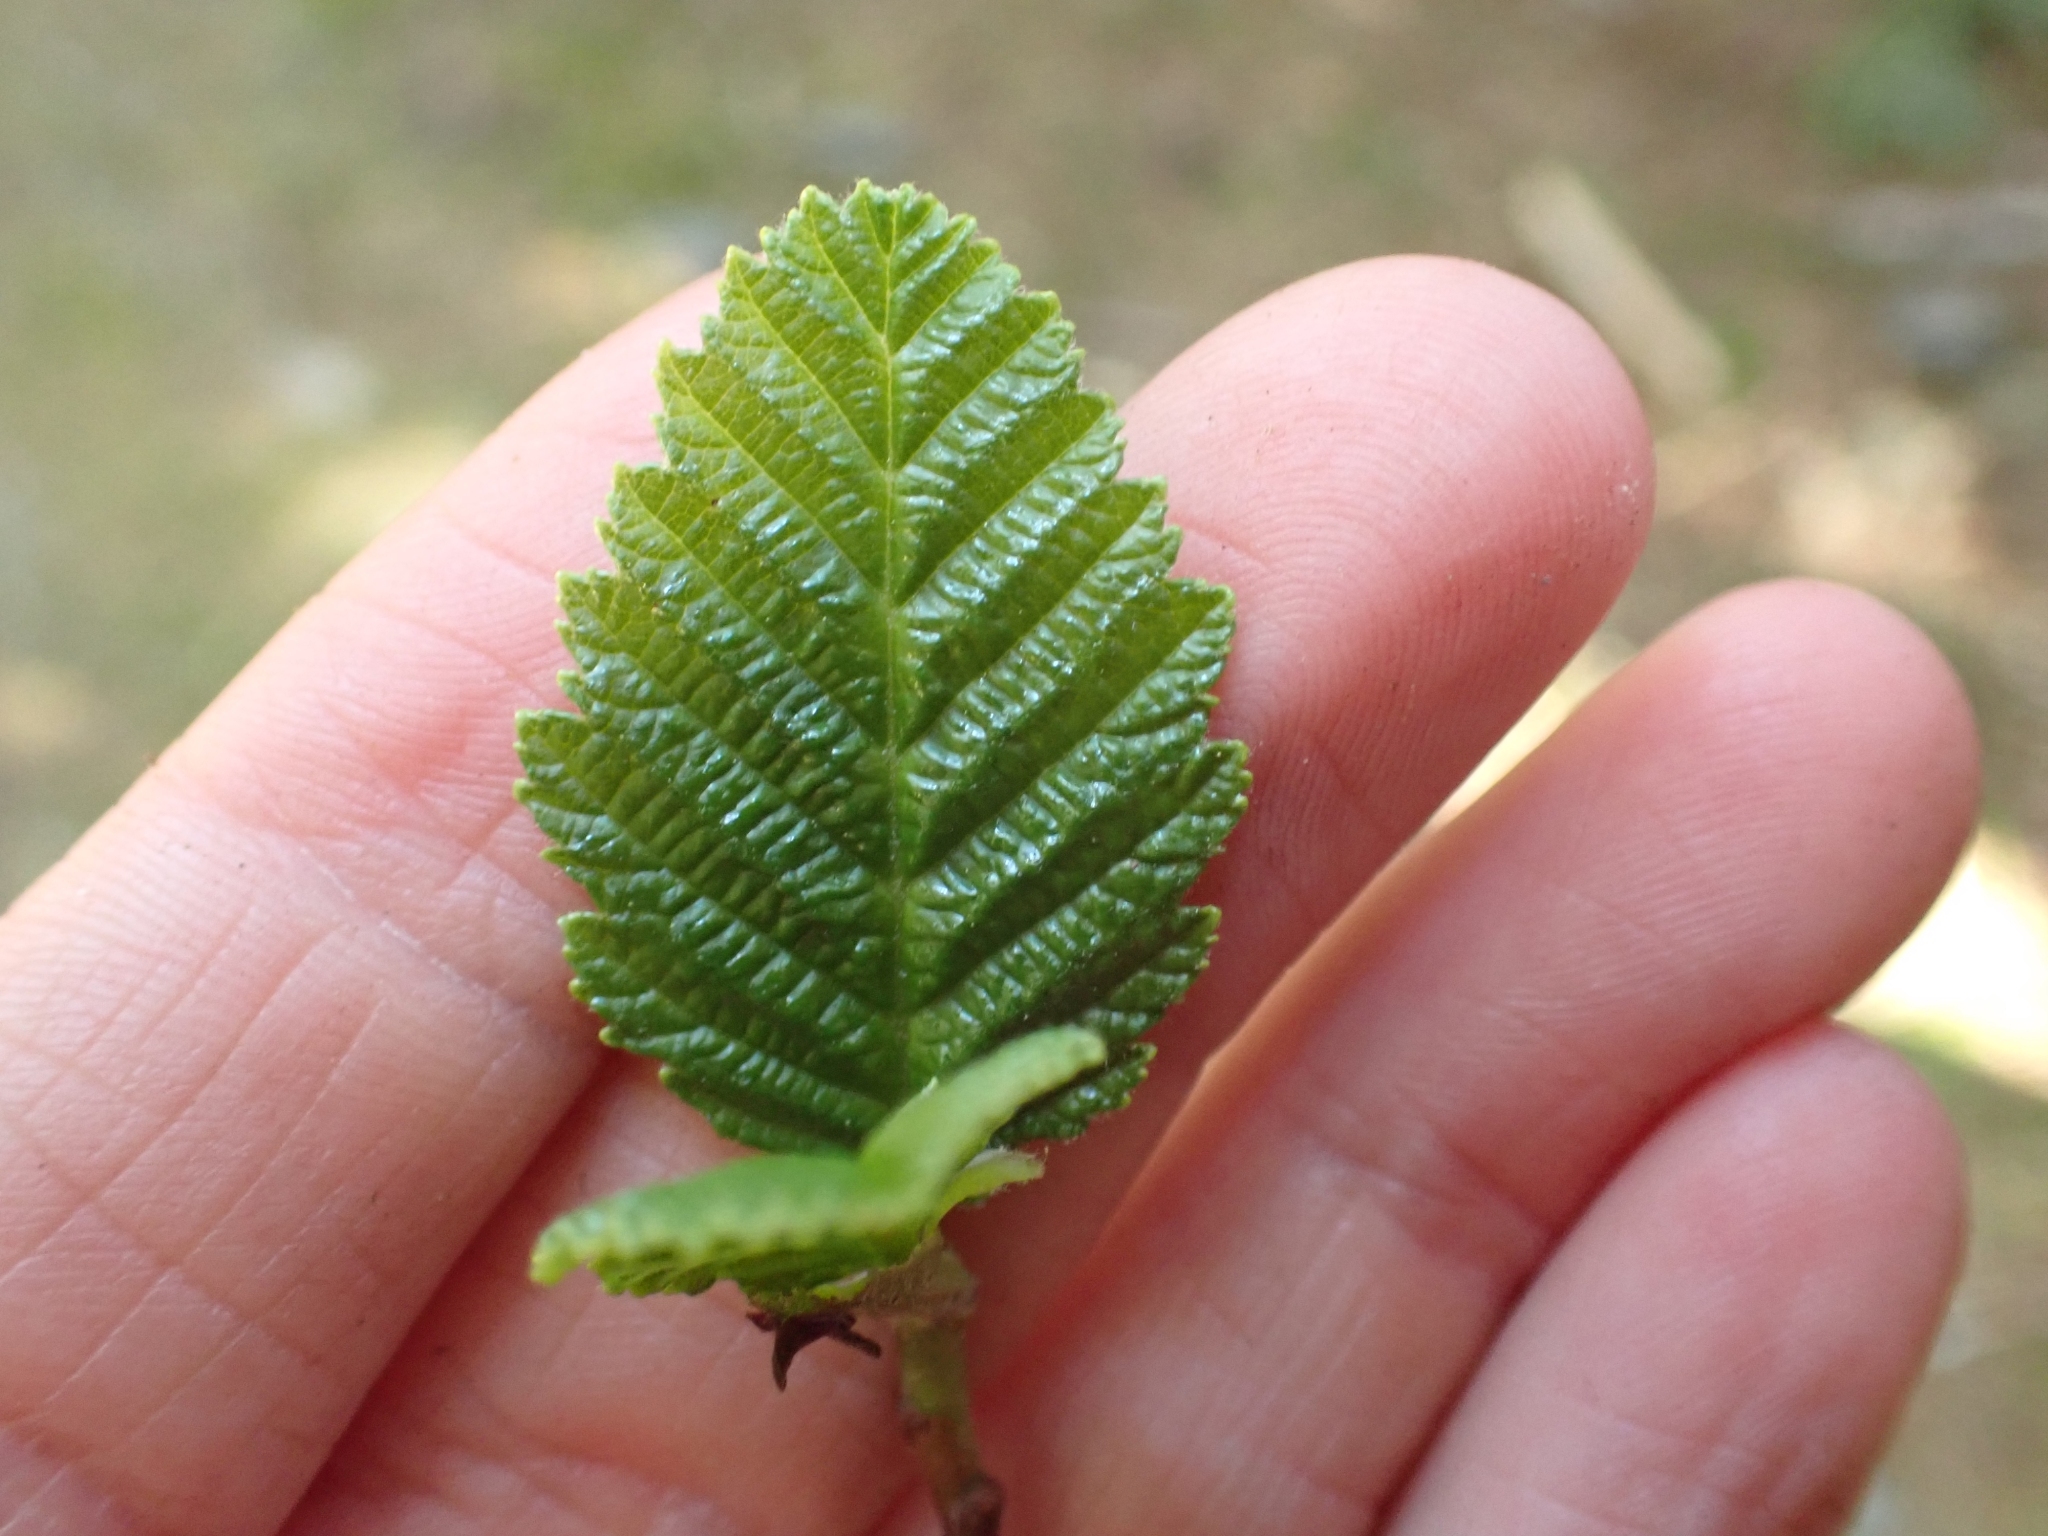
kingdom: Plantae
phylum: Tracheophyta
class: Magnoliopsida
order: Fagales
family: Betulaceae
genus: Alnus
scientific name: Alnus rubra
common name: Red alder
